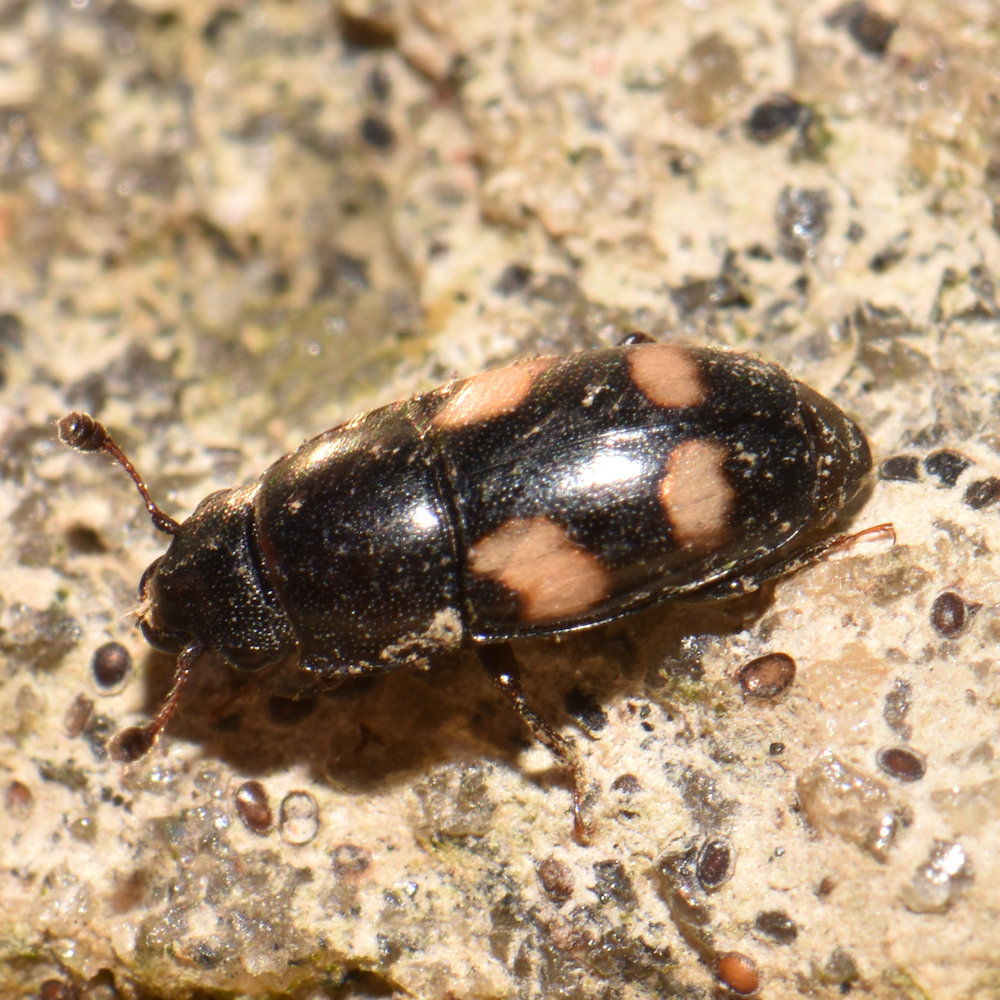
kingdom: Animalia
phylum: Arthropoda
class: Insecta
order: Coleoptera
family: Nitidulidae
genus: Glischrochilus
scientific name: Glischrochilus quadrisignatus
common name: Picnic beetle
